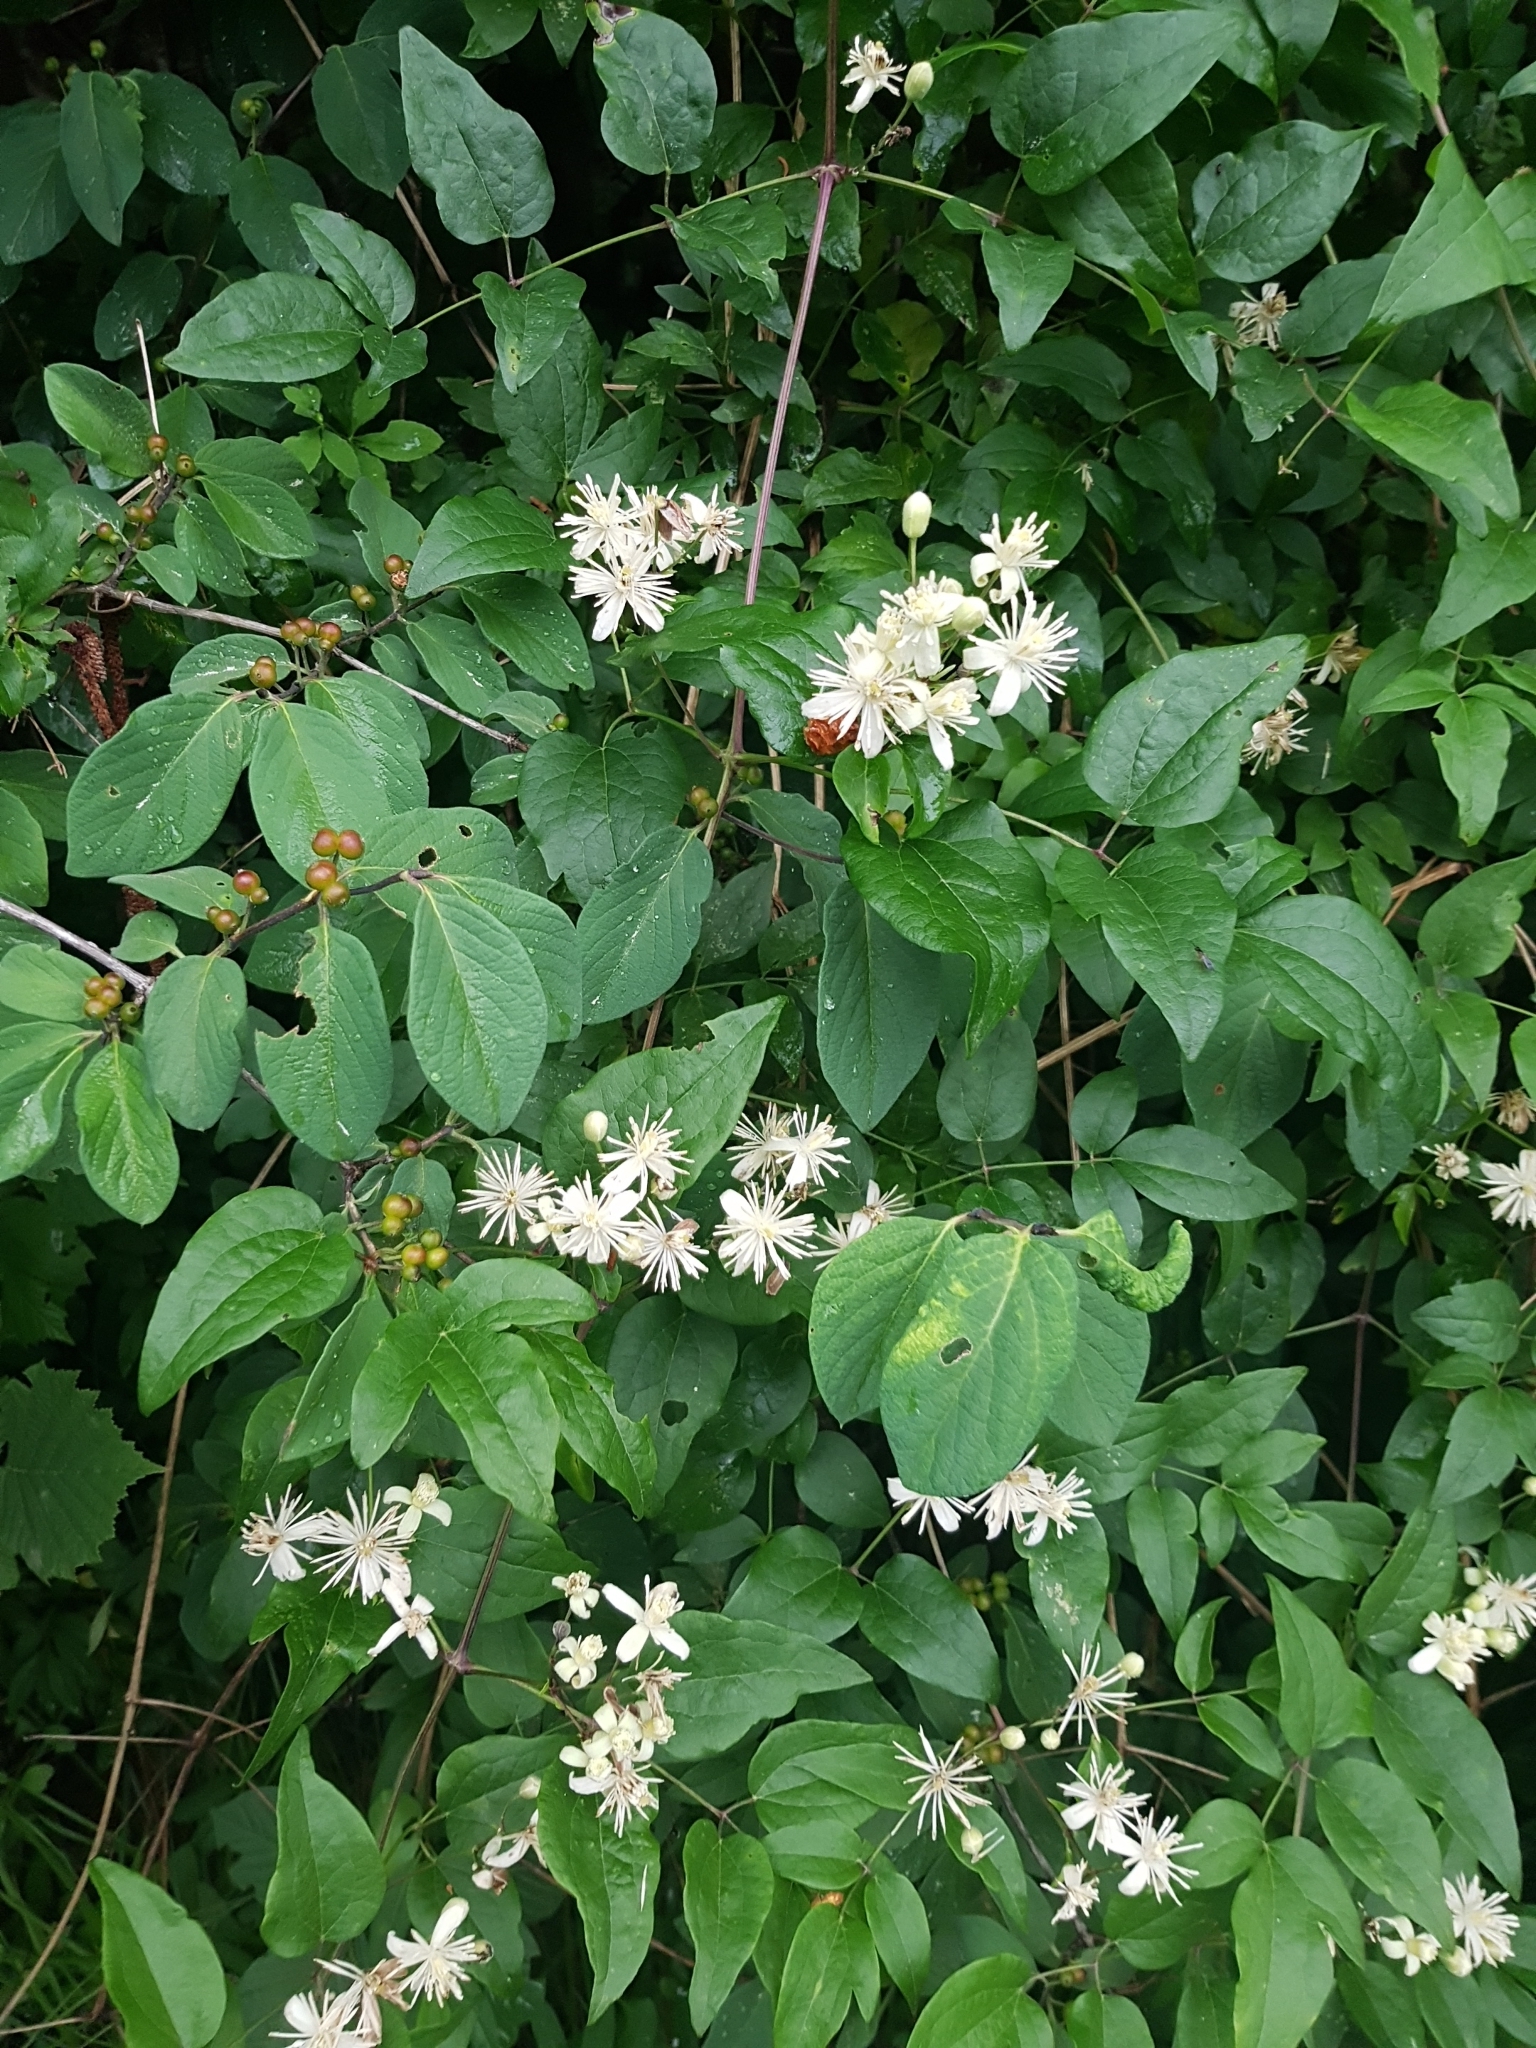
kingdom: Plantae
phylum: Tracheophyta
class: Magnoliopsida
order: Ranunculales
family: Ranunculaceae
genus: Clematis
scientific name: Clematis vitalba
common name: Evergreen clematis
